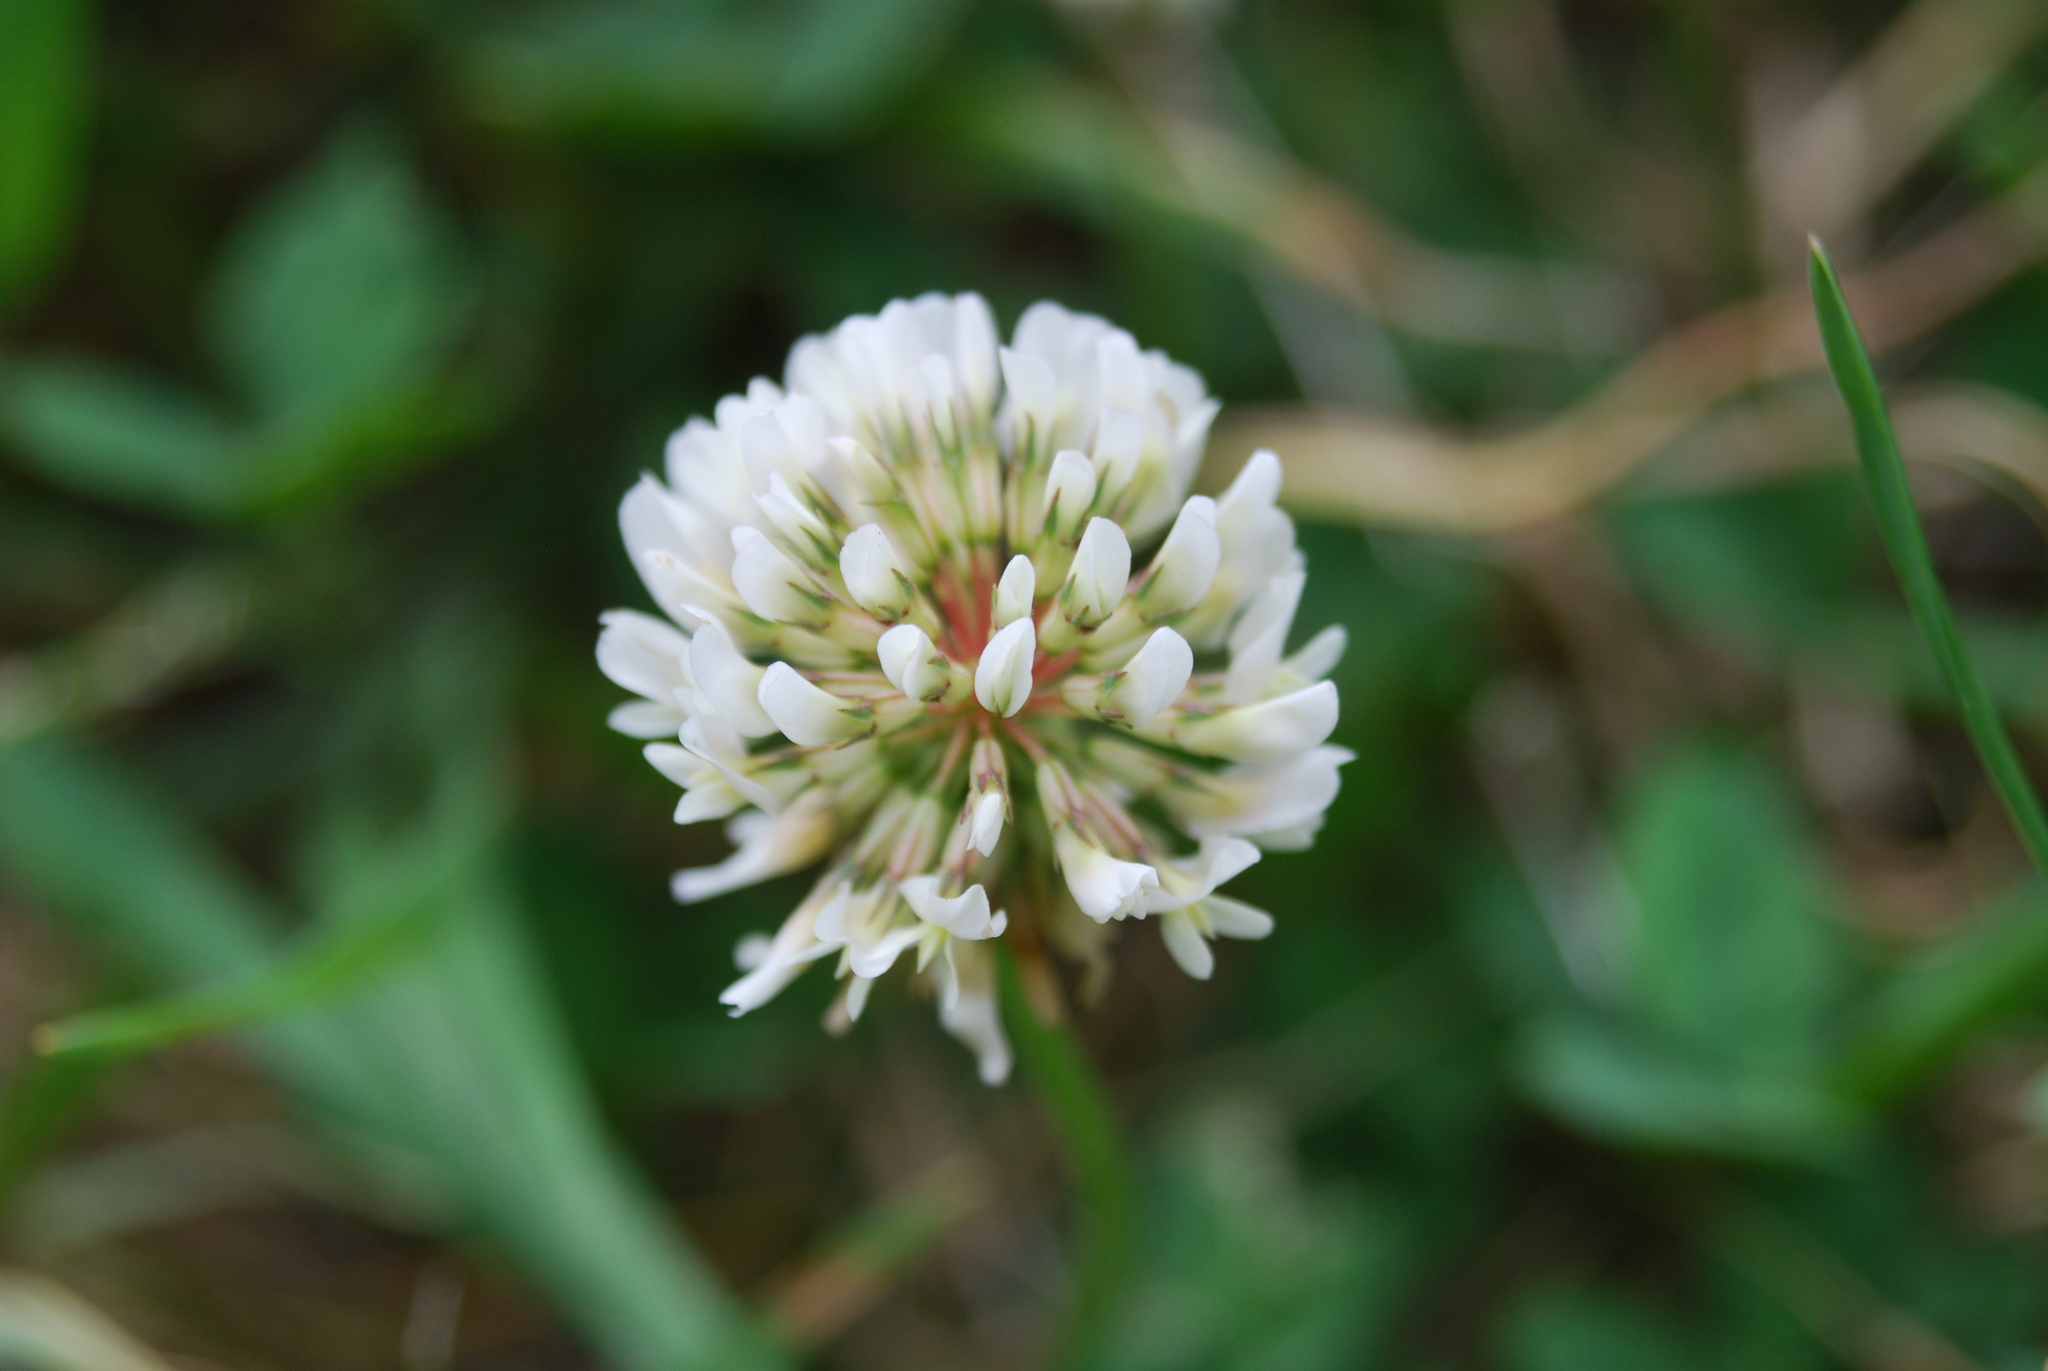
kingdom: Plantae
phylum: Tracheophyta
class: Magnoliopsida
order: Fabales
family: Fabaceae
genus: Trifolium
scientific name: Trifolium repens
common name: White clover
